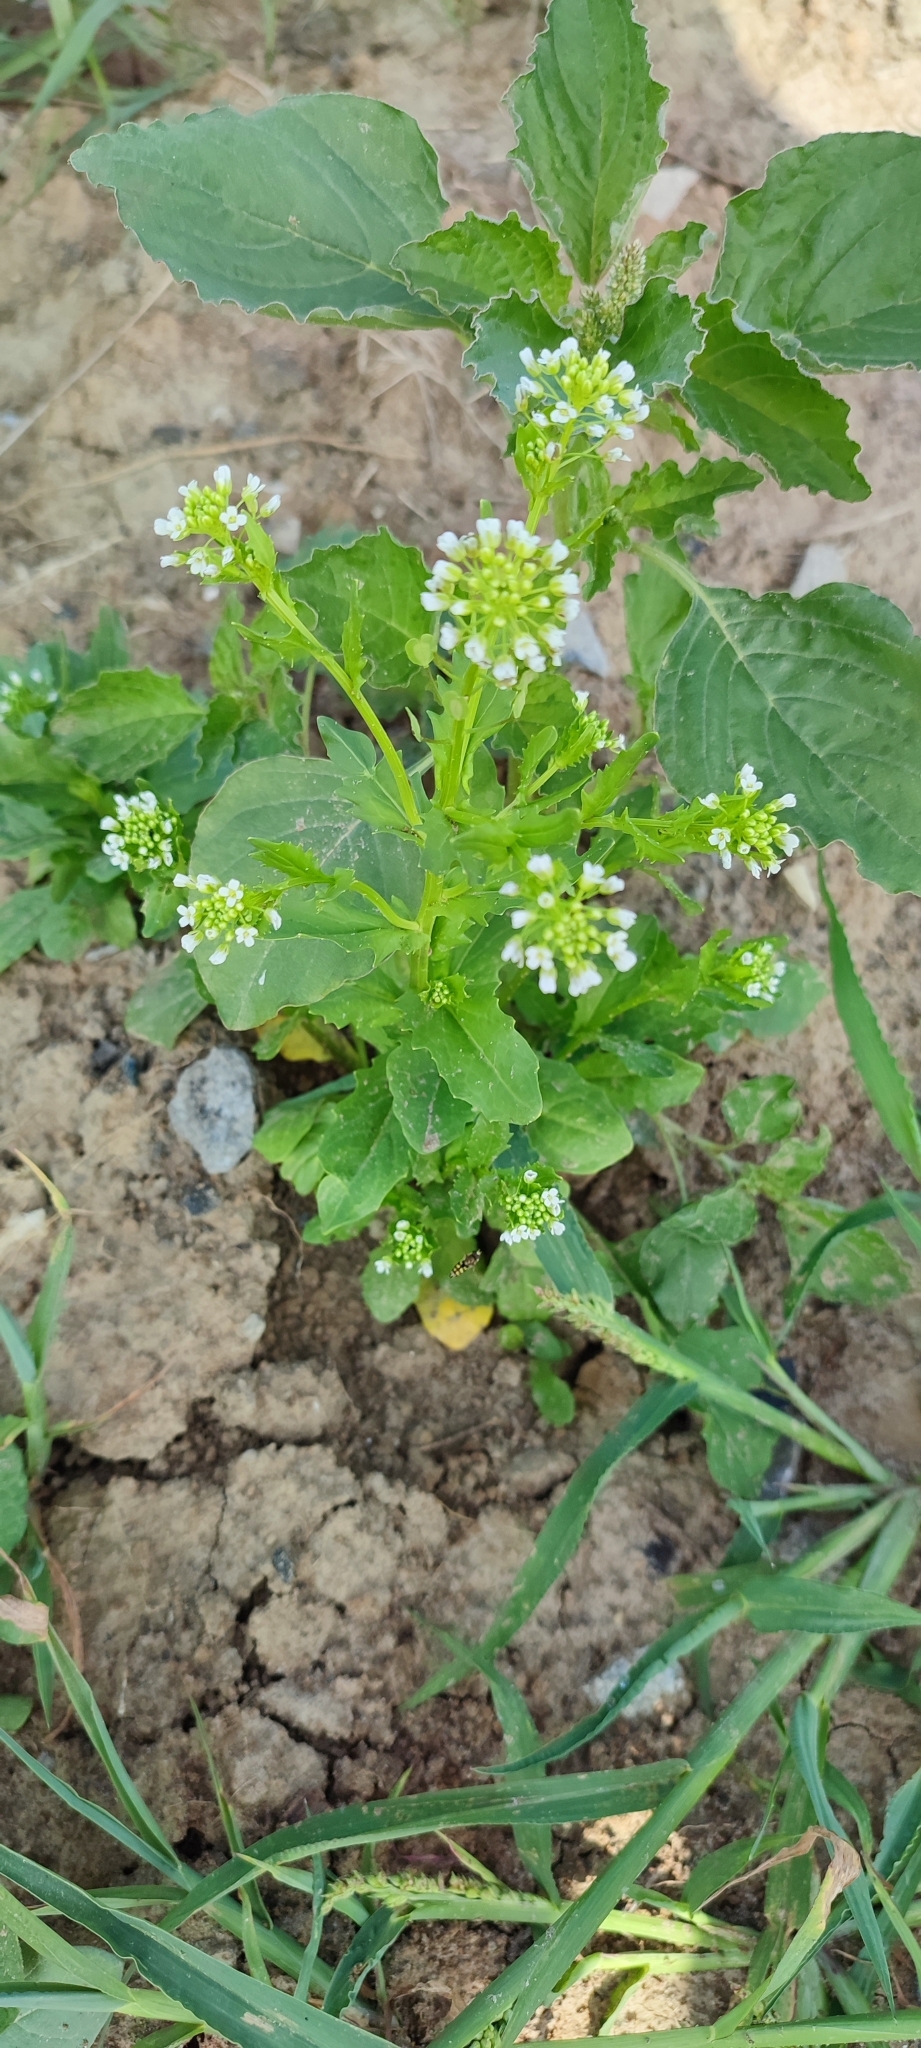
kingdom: Plantae
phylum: Tracheophyta
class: Magnoliopsida
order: Brassicales
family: Brassicaceae
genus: Thlaspi
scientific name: Thlaspi arvense
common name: Field pennycress
